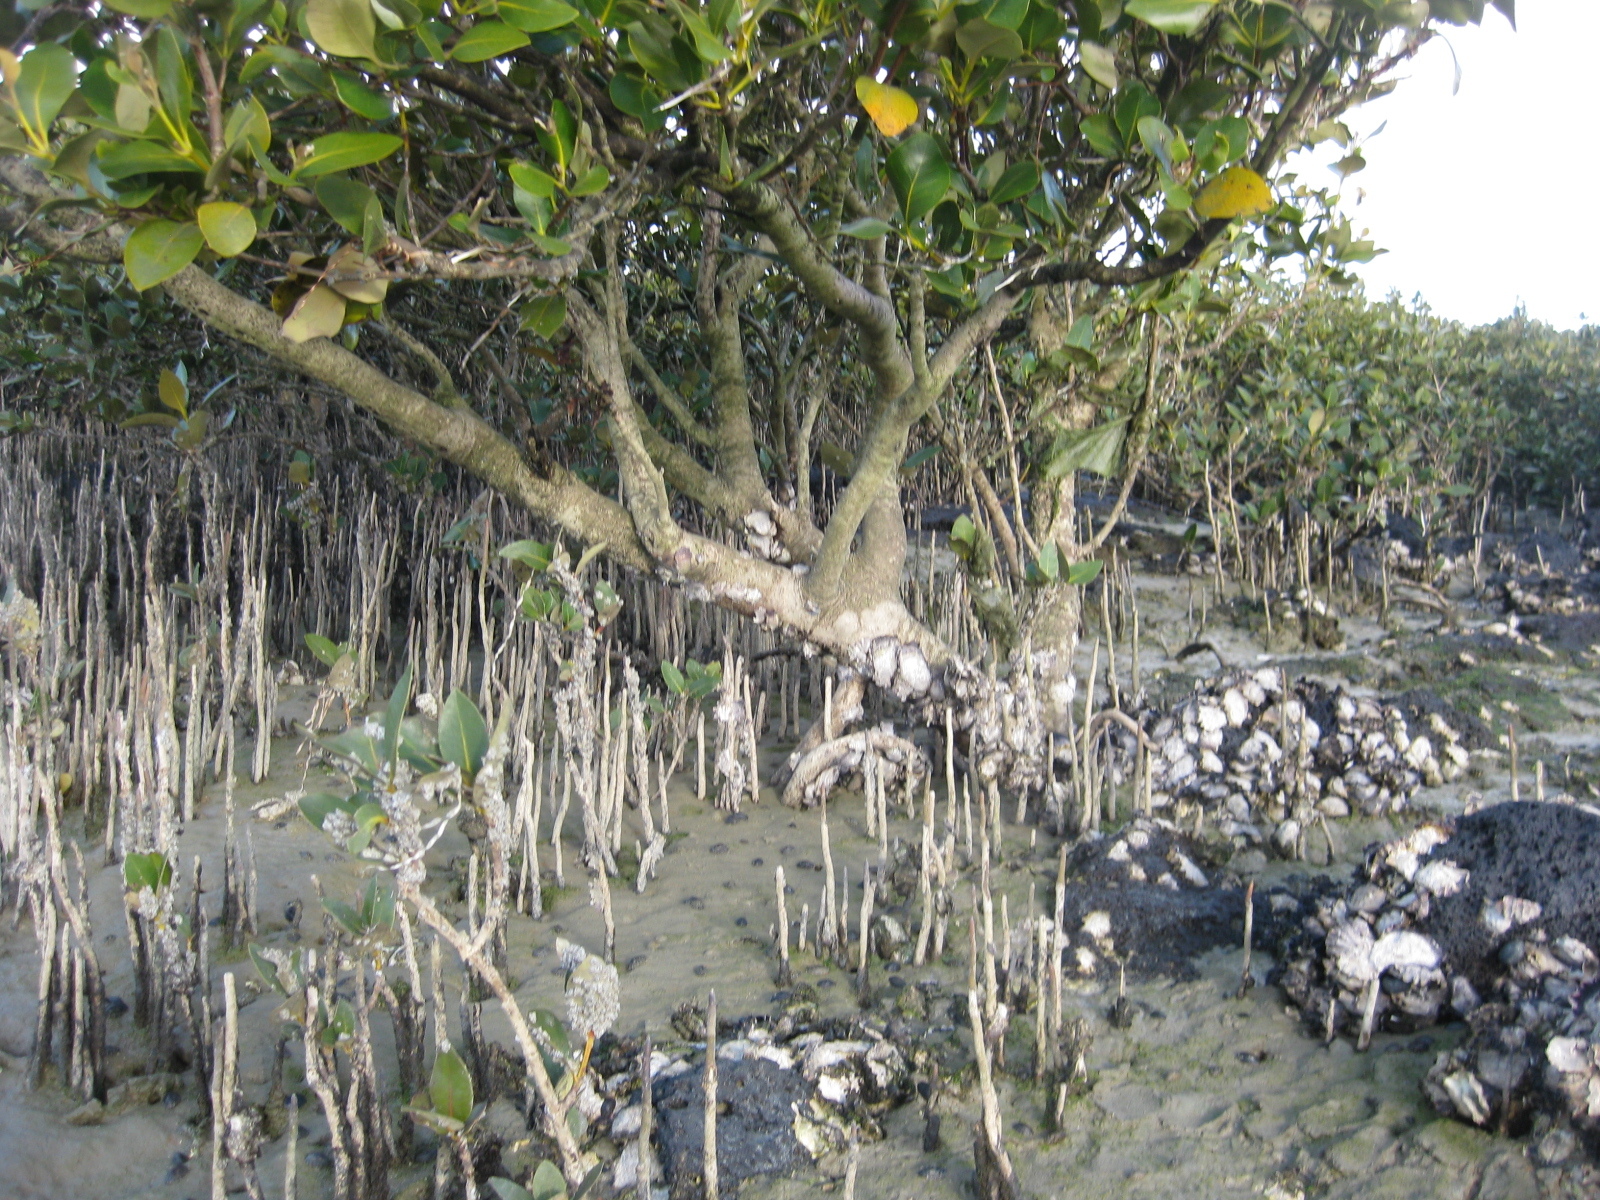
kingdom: Plantae
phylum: Tracheophyta
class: Magnoliopsida
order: Lamiales
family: Acanthaceae
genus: Avicennia
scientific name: Avicennia marina
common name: Gray mangrove
